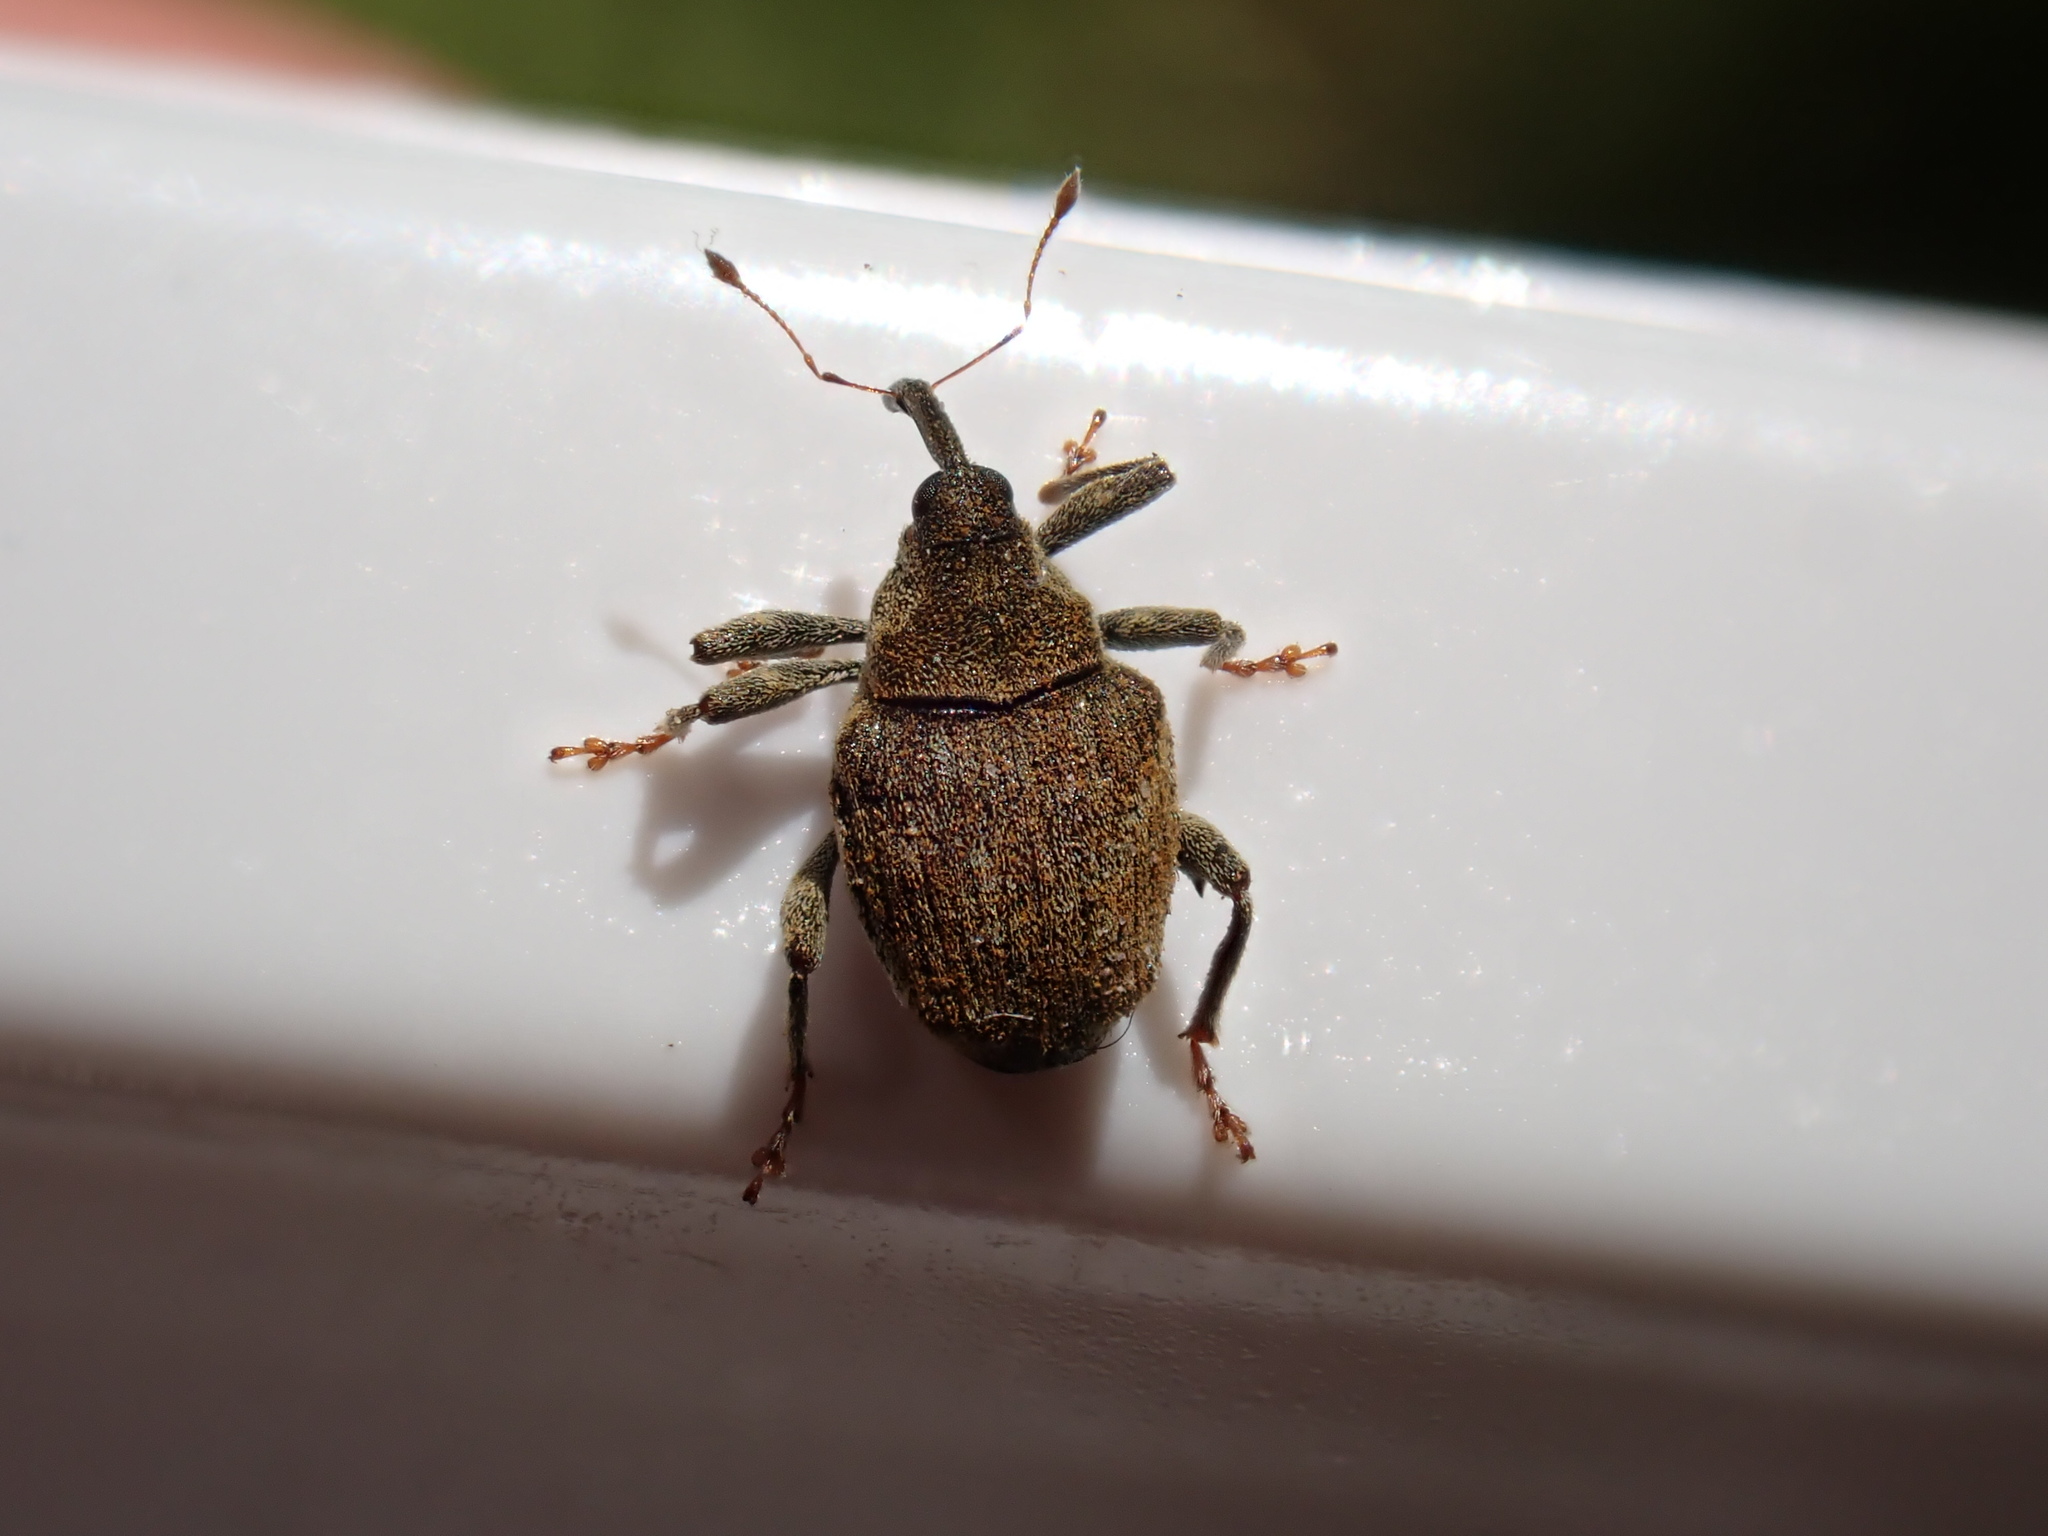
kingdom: Animalia
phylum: Arthropoda
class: Insecta
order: Coleoptera
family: Curculionidae
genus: Parethelcus
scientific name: Parethelcus pollinarius
